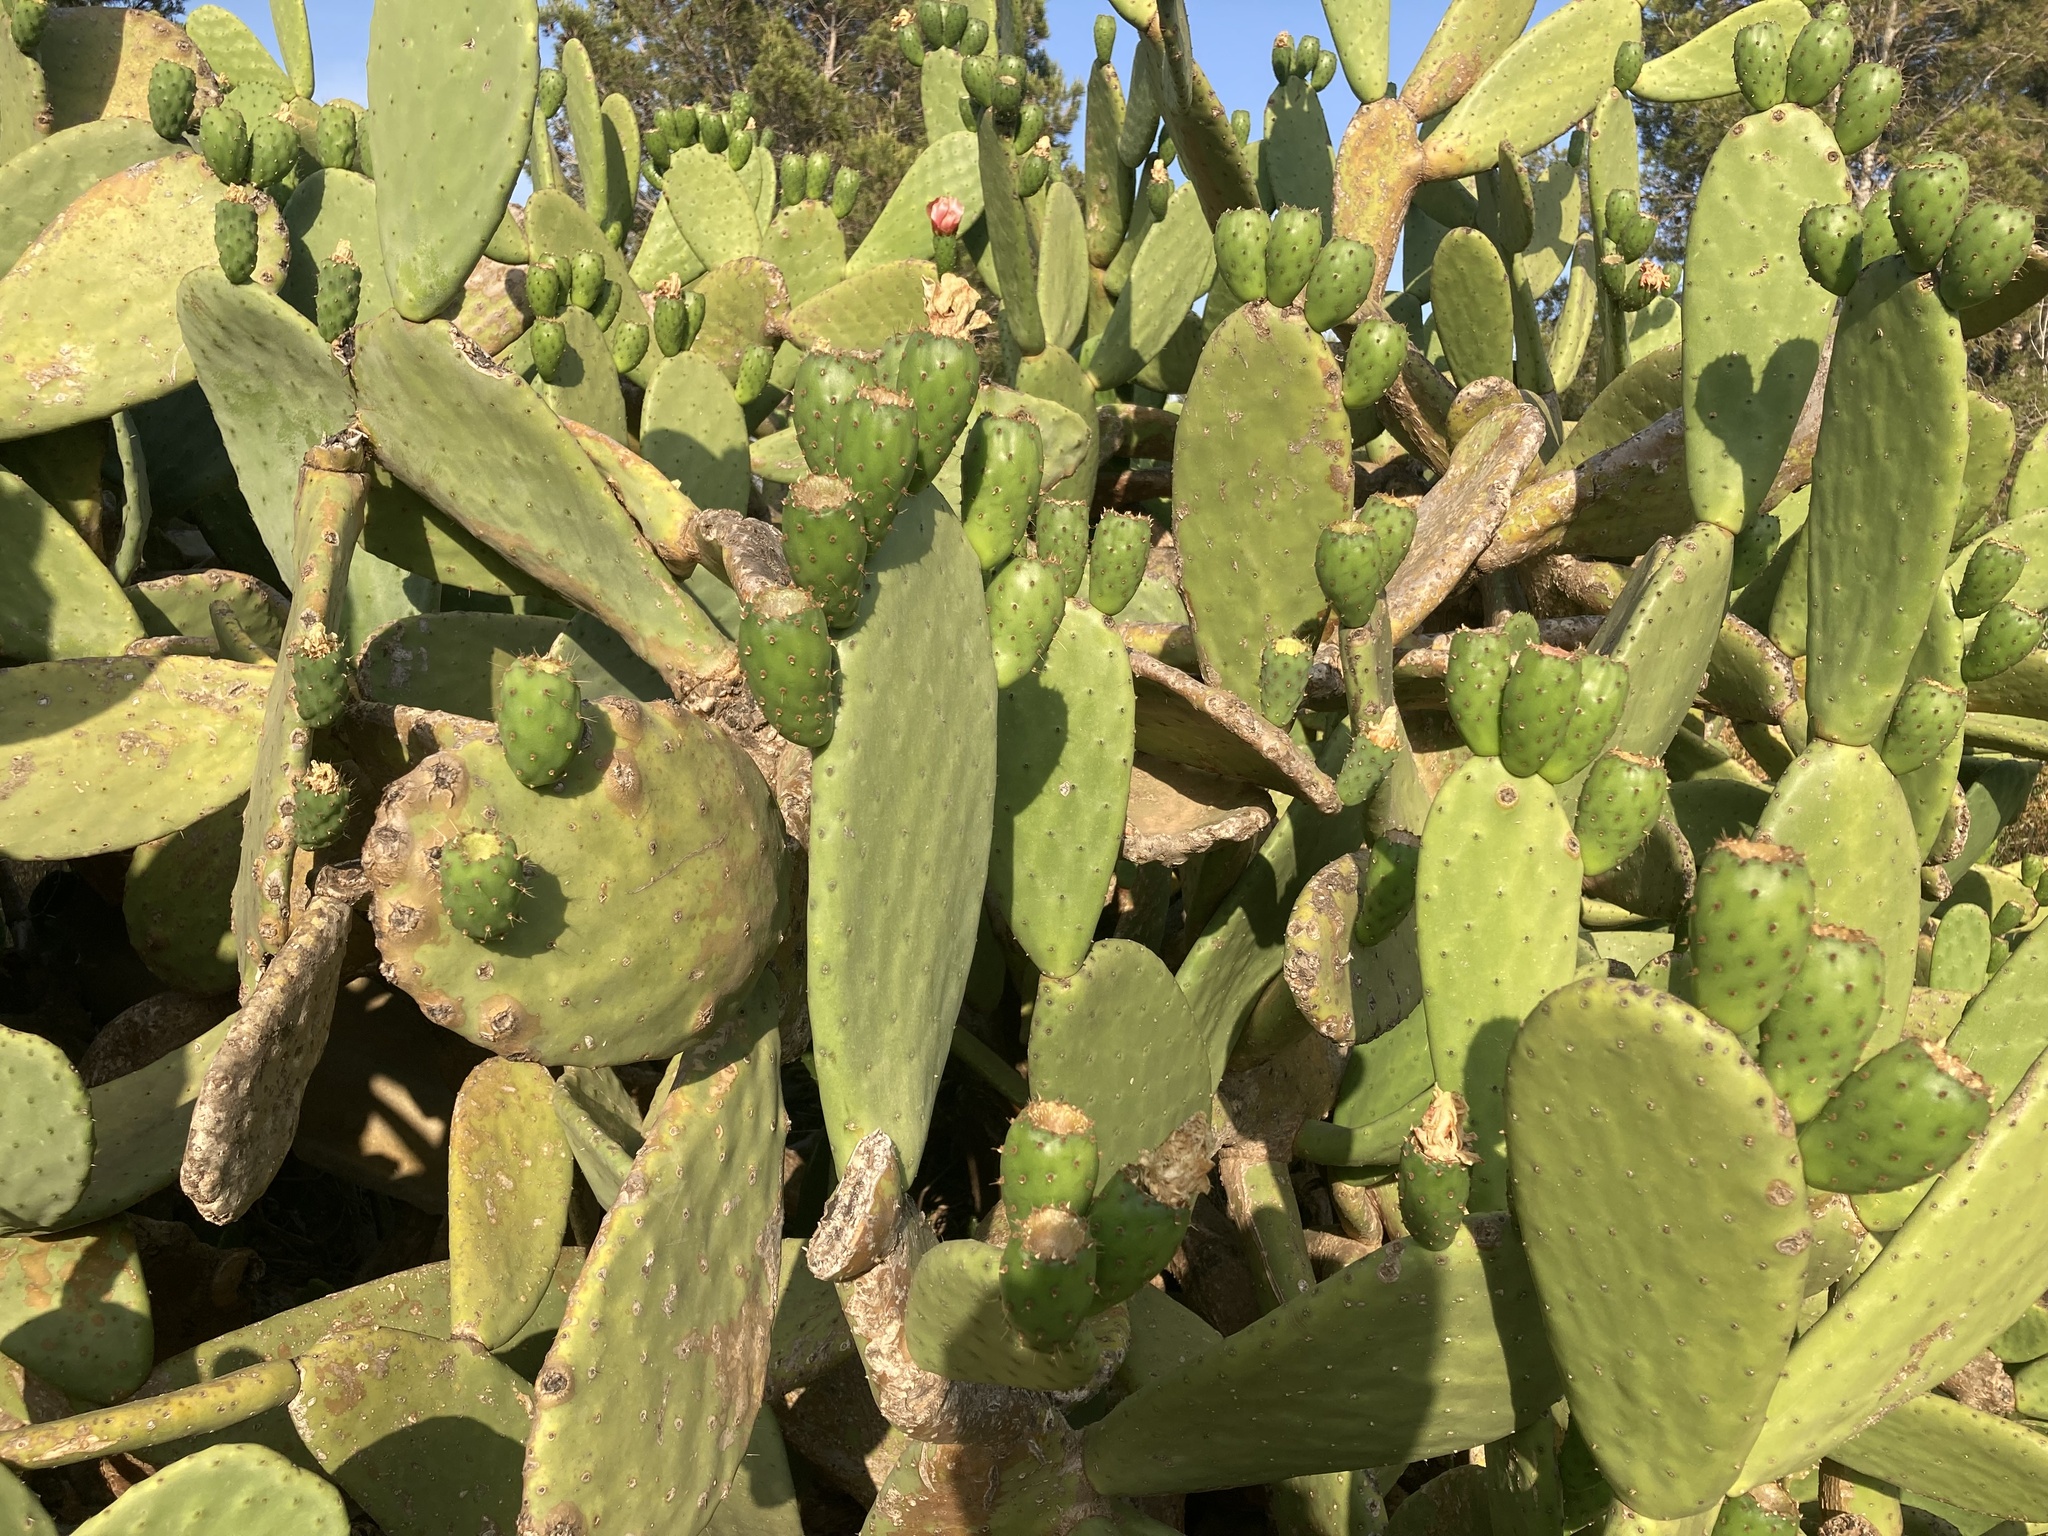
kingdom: Plantae
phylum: Tracheophyta
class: Magnoliopsida
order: Caryophyllales
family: Cactaceae
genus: Opuntia
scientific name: Opuntia ficus-indica
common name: Barbary fig
